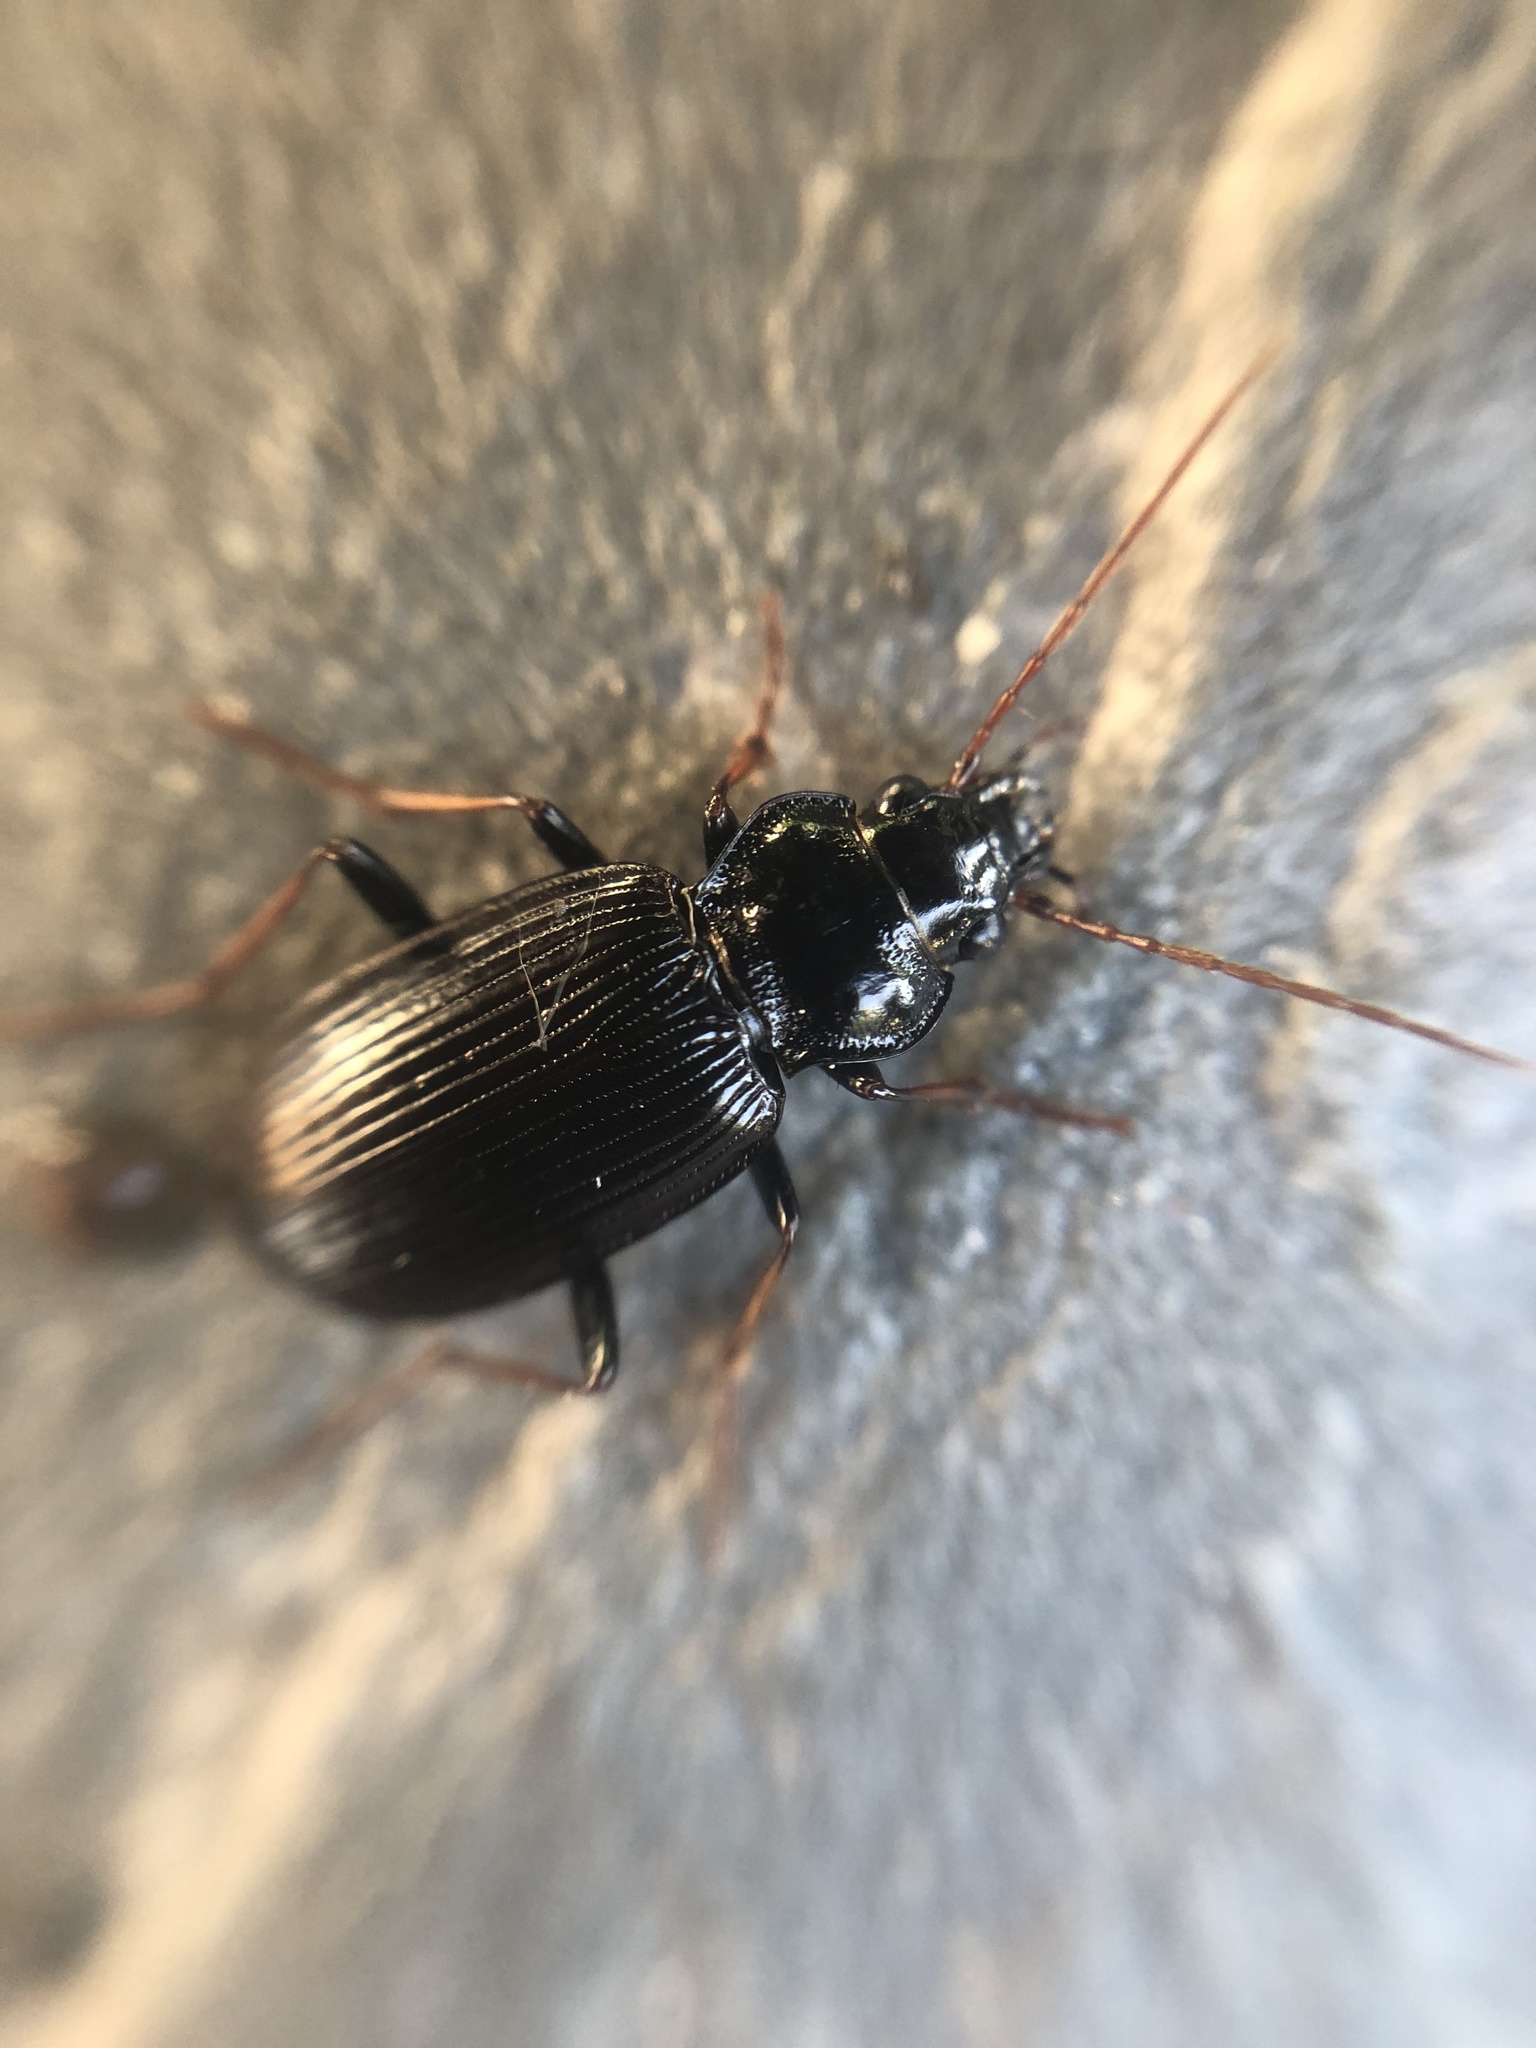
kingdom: Animalia
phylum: Arthropoda
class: Insecta
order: Coleoptera
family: Carabidae
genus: Nebria
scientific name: Nebria brevicollis
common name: Short-necked gazelle beetle
